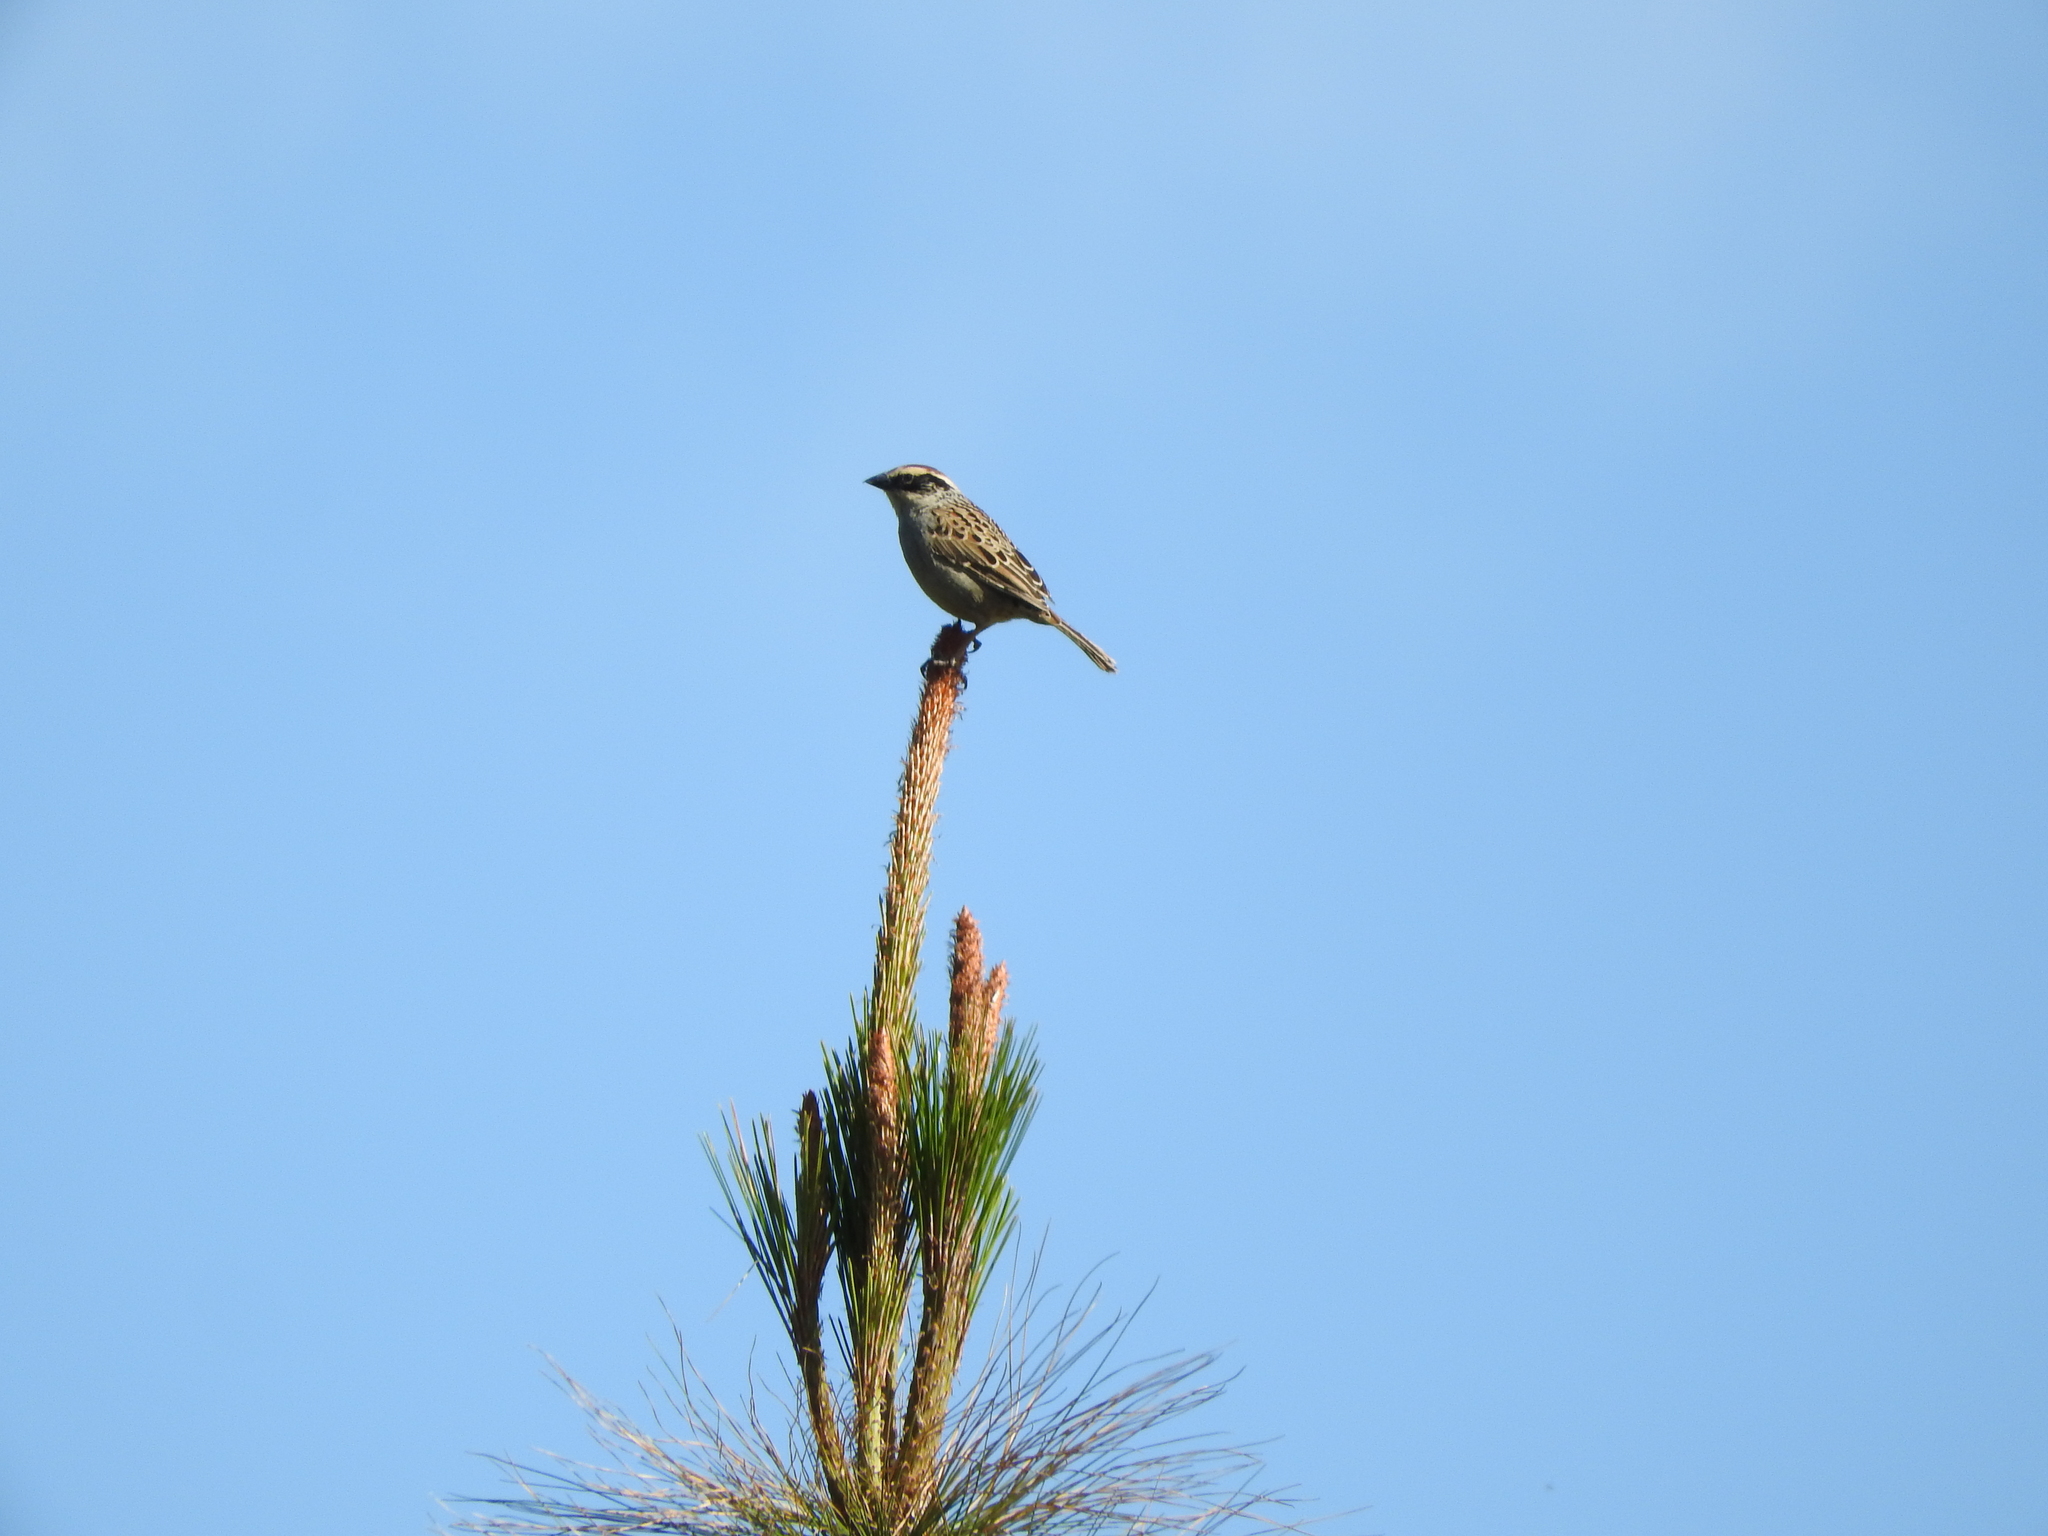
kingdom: Animalia
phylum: Chordata
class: Aves
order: Passeriformes
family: Passerellidae
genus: Oriturus
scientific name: Oriturus superciliosus
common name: Striped sparrow
